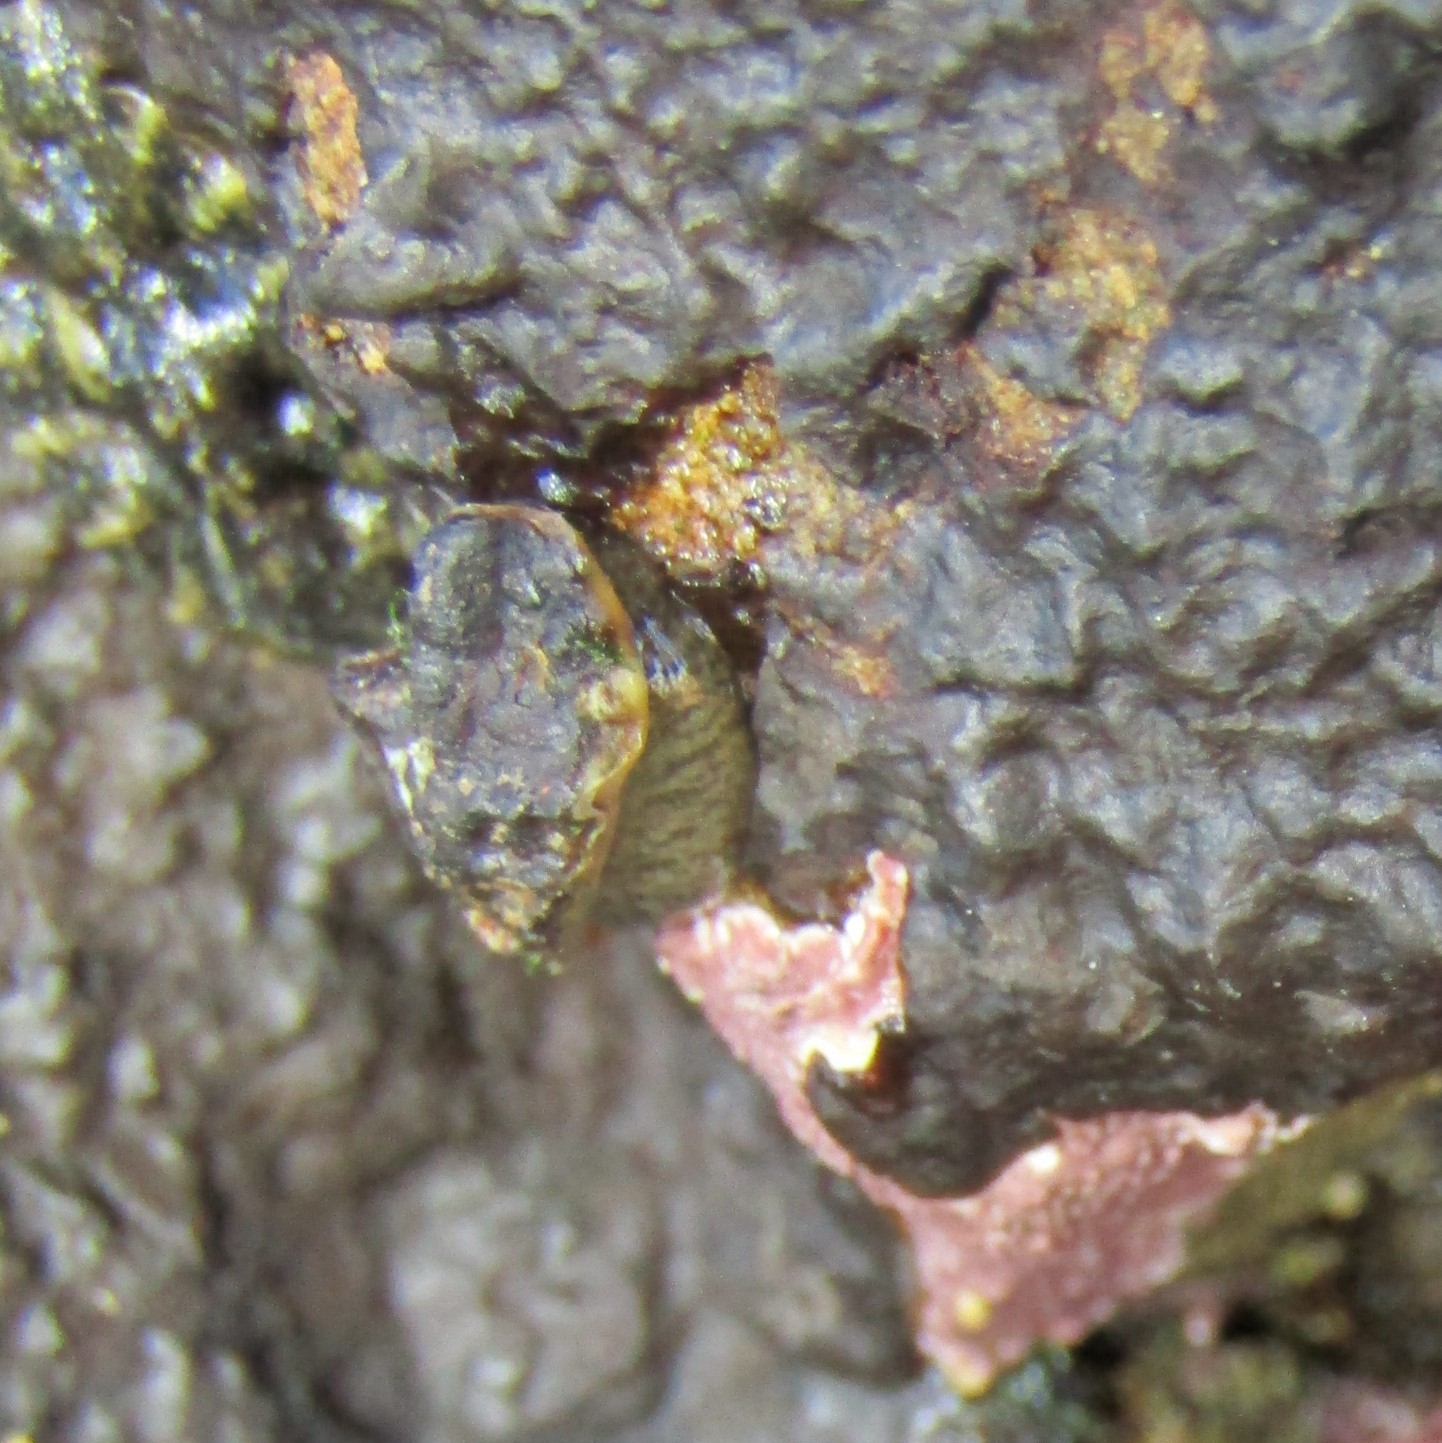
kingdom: Animalia
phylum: Mollusca
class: Gastropoda
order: Siphonariida
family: Siphonariidae
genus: Siphonaria
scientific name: Siphonaria australis
